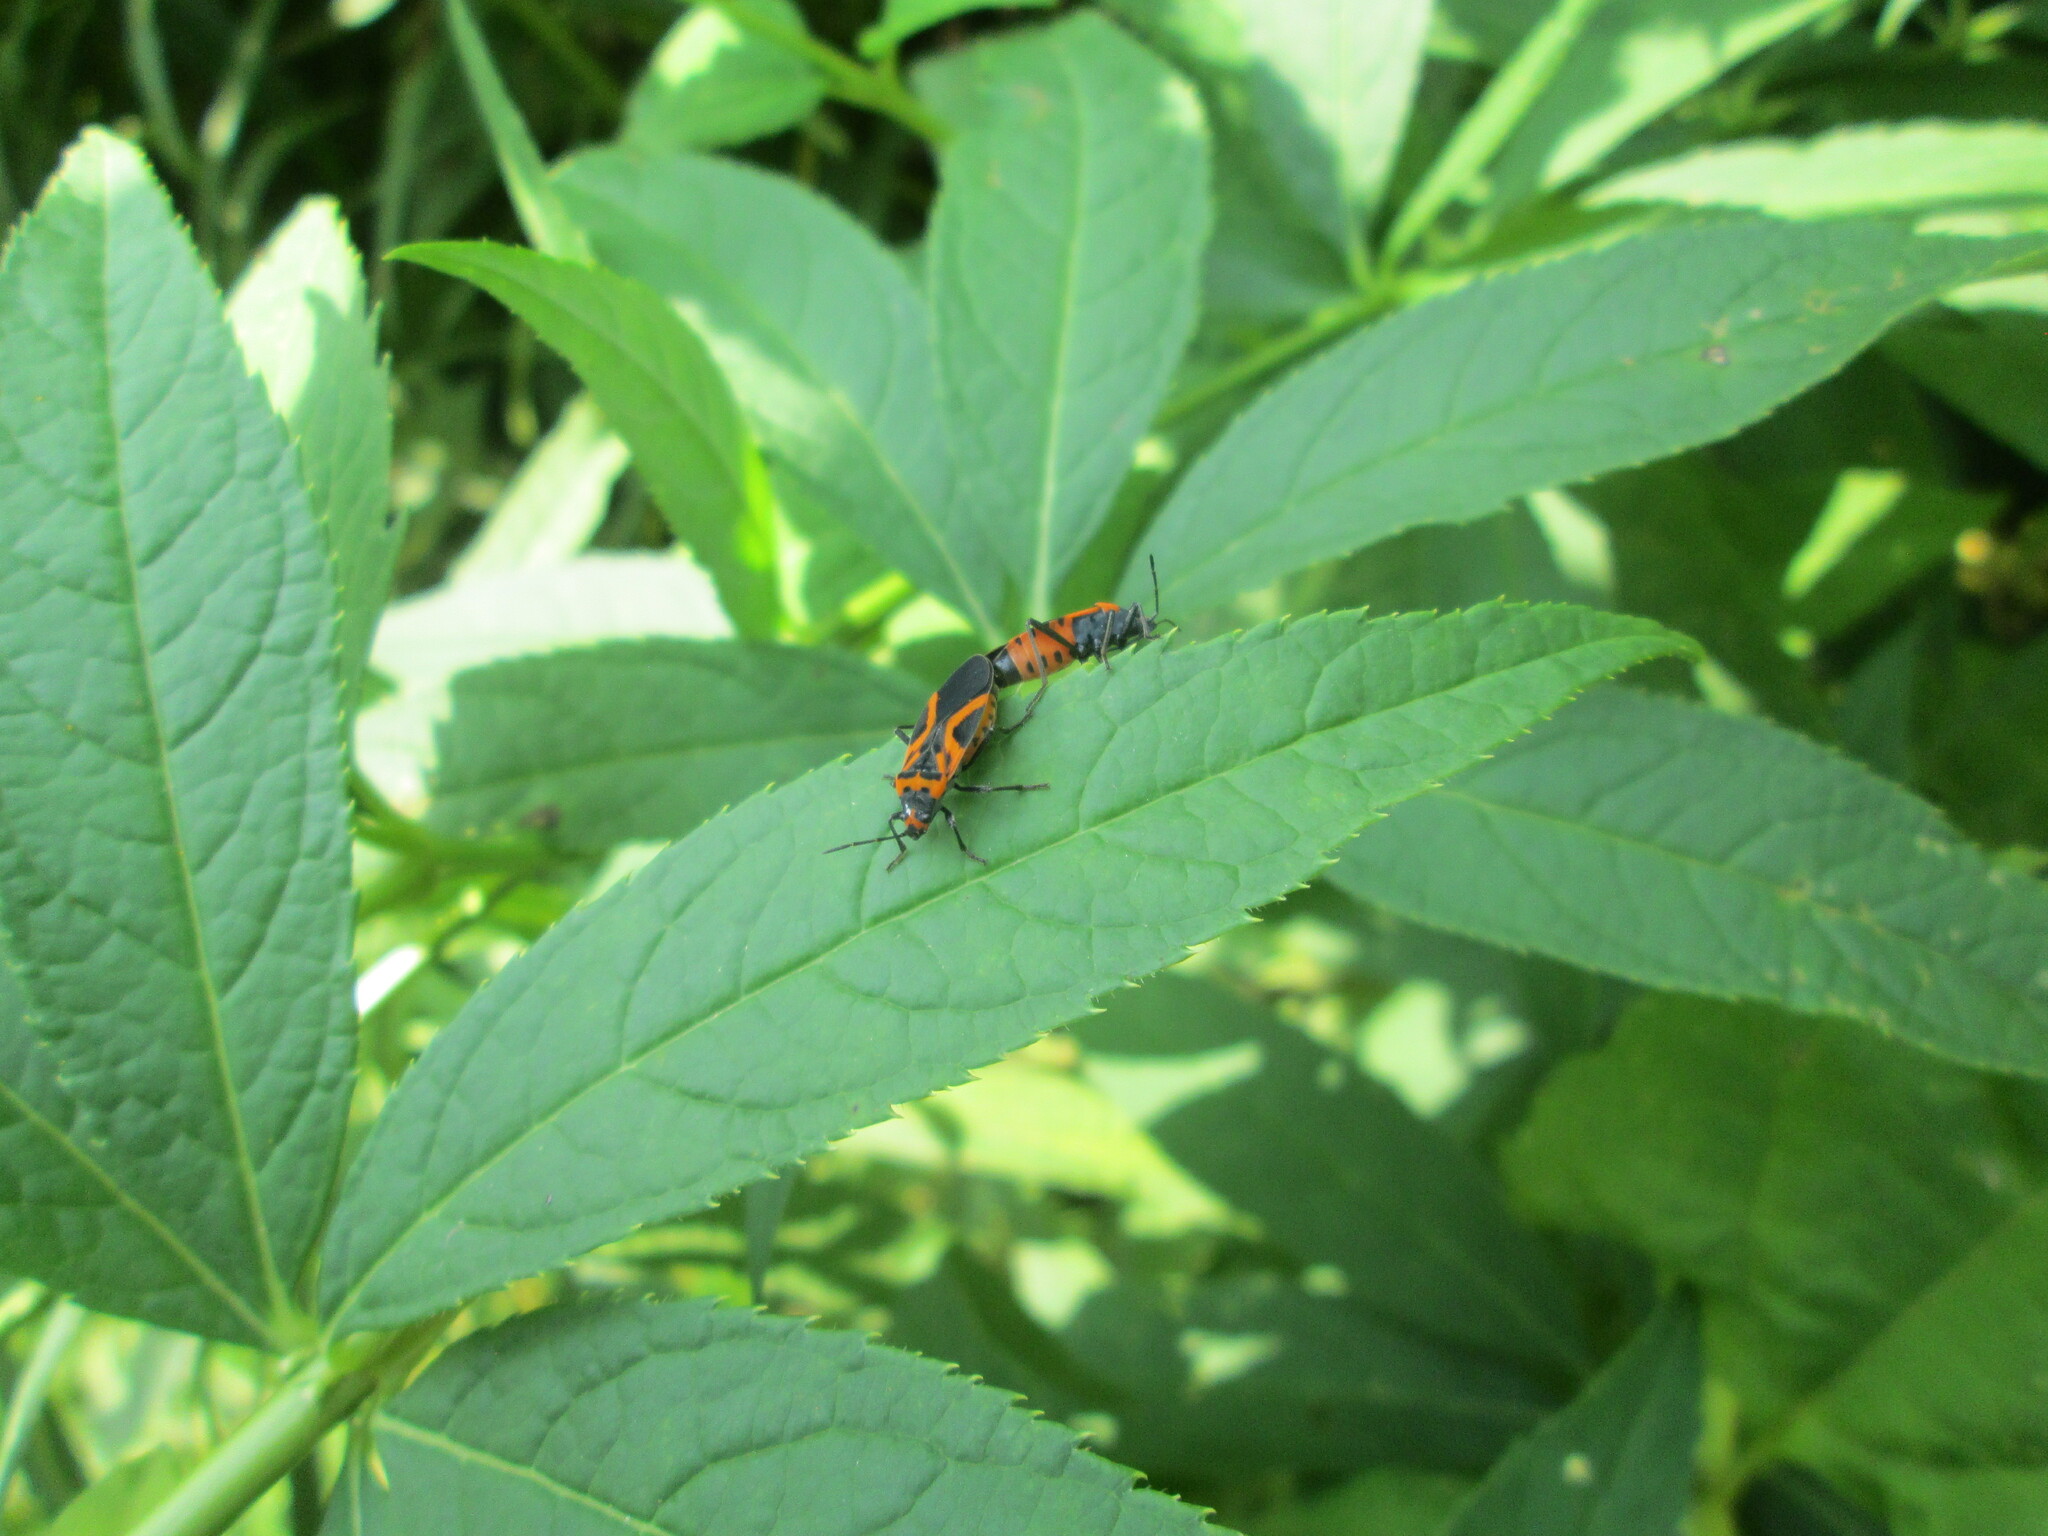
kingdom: Animalia
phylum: Arthropoda
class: Insecta
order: Hemiptera
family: Lygaeidae
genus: Lygaeus
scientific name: Lygaeus turcicus
